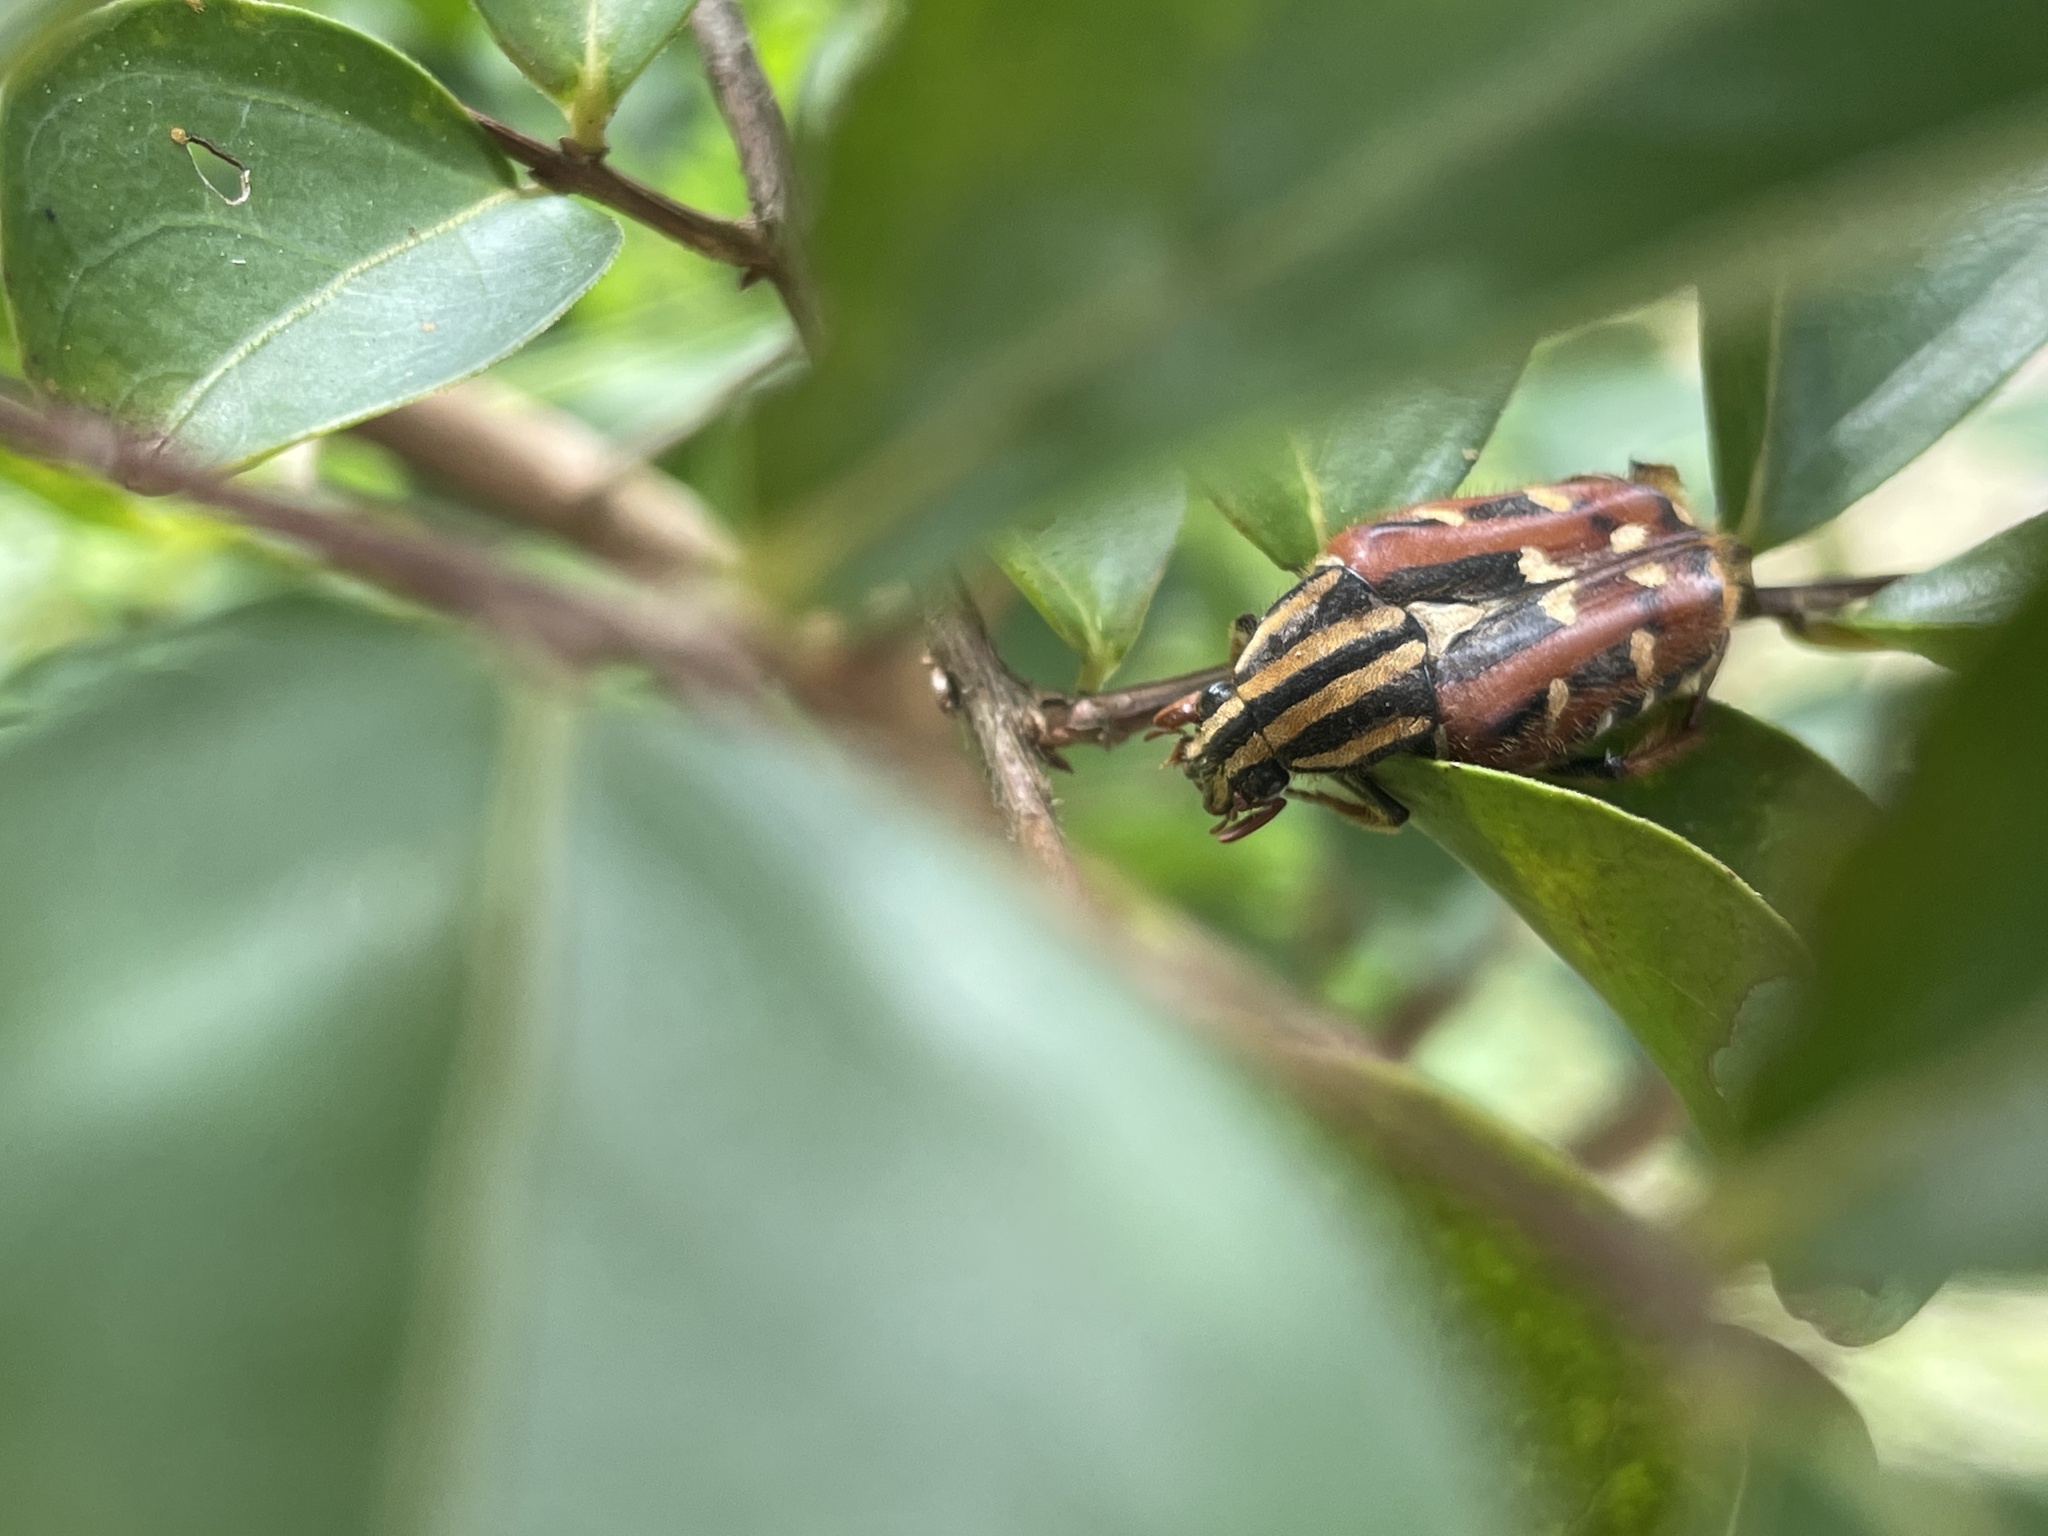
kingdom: Animalia
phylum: Arthropoda
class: Insecta
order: Coleoptera
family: Scarabaeidae
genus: Euselates
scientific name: Euselates magna
